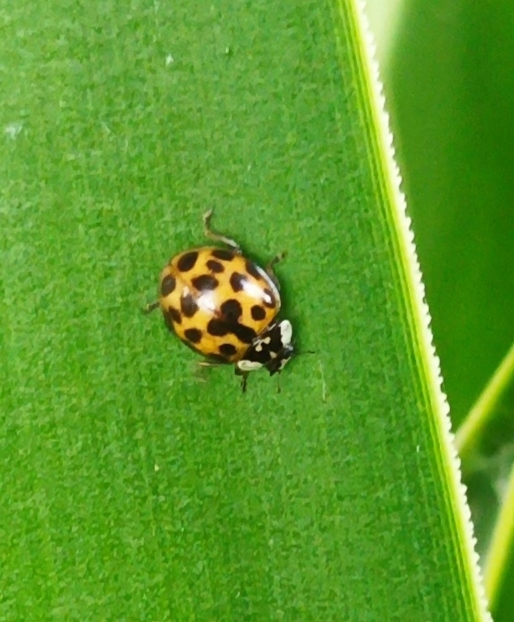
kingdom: Animalia
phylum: Arthropoda
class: Insecta
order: Coleoptera
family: Coccinellidae
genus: Harmonia
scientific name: Harmonia axyridis
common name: Harlequin ladybird
